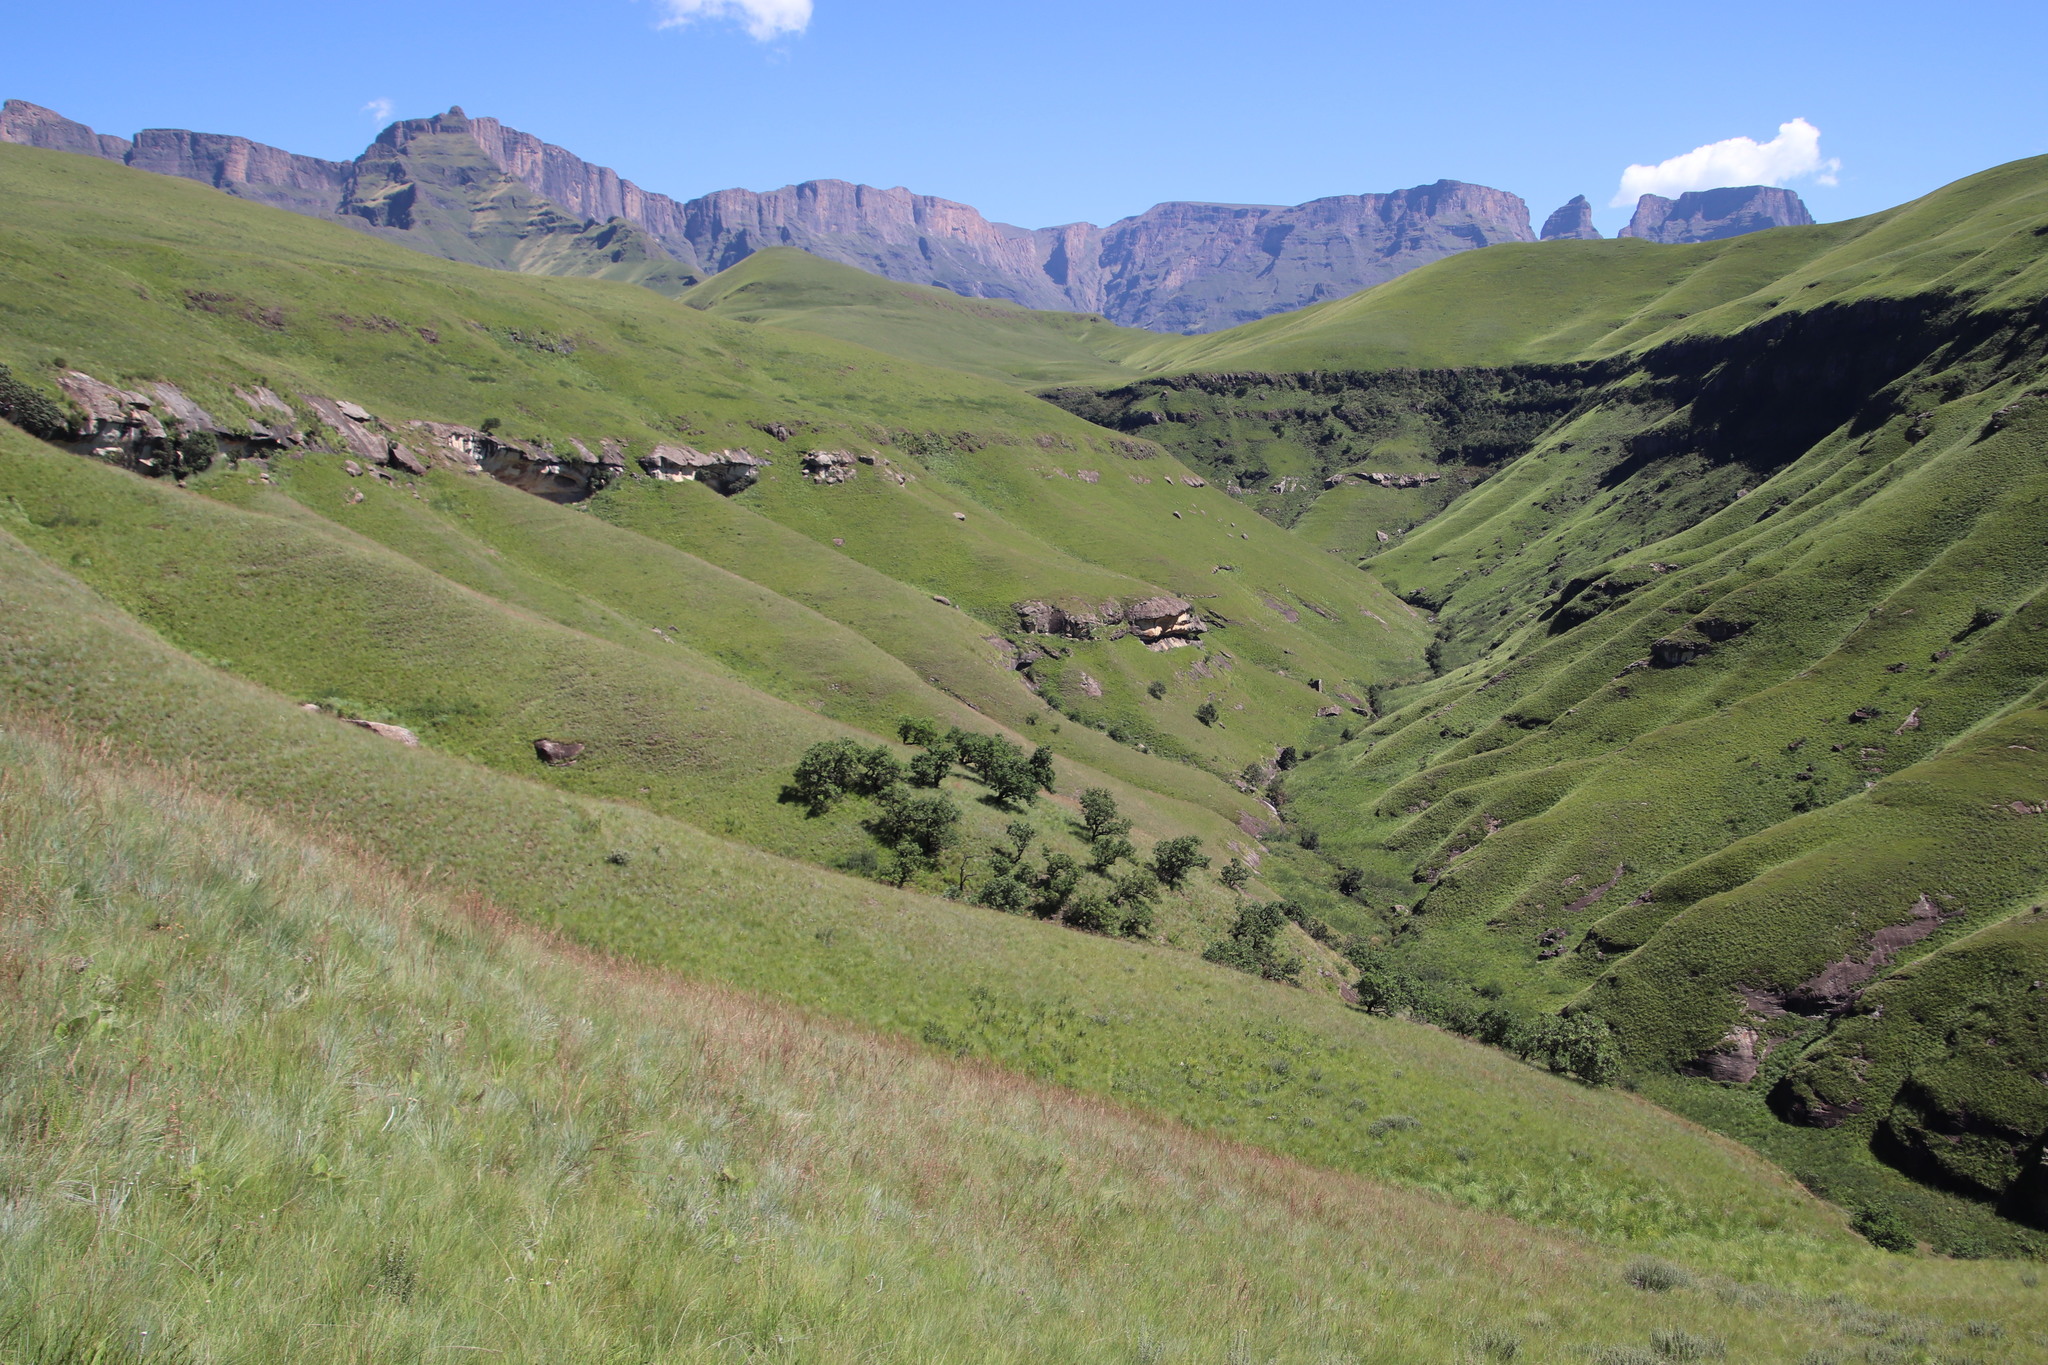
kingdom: Plantae
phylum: Tracheophyta
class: Magnoliopsida
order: Proteales
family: Proteaceae
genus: Protea
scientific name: Protea roupelliae
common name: Silver sugarbush
